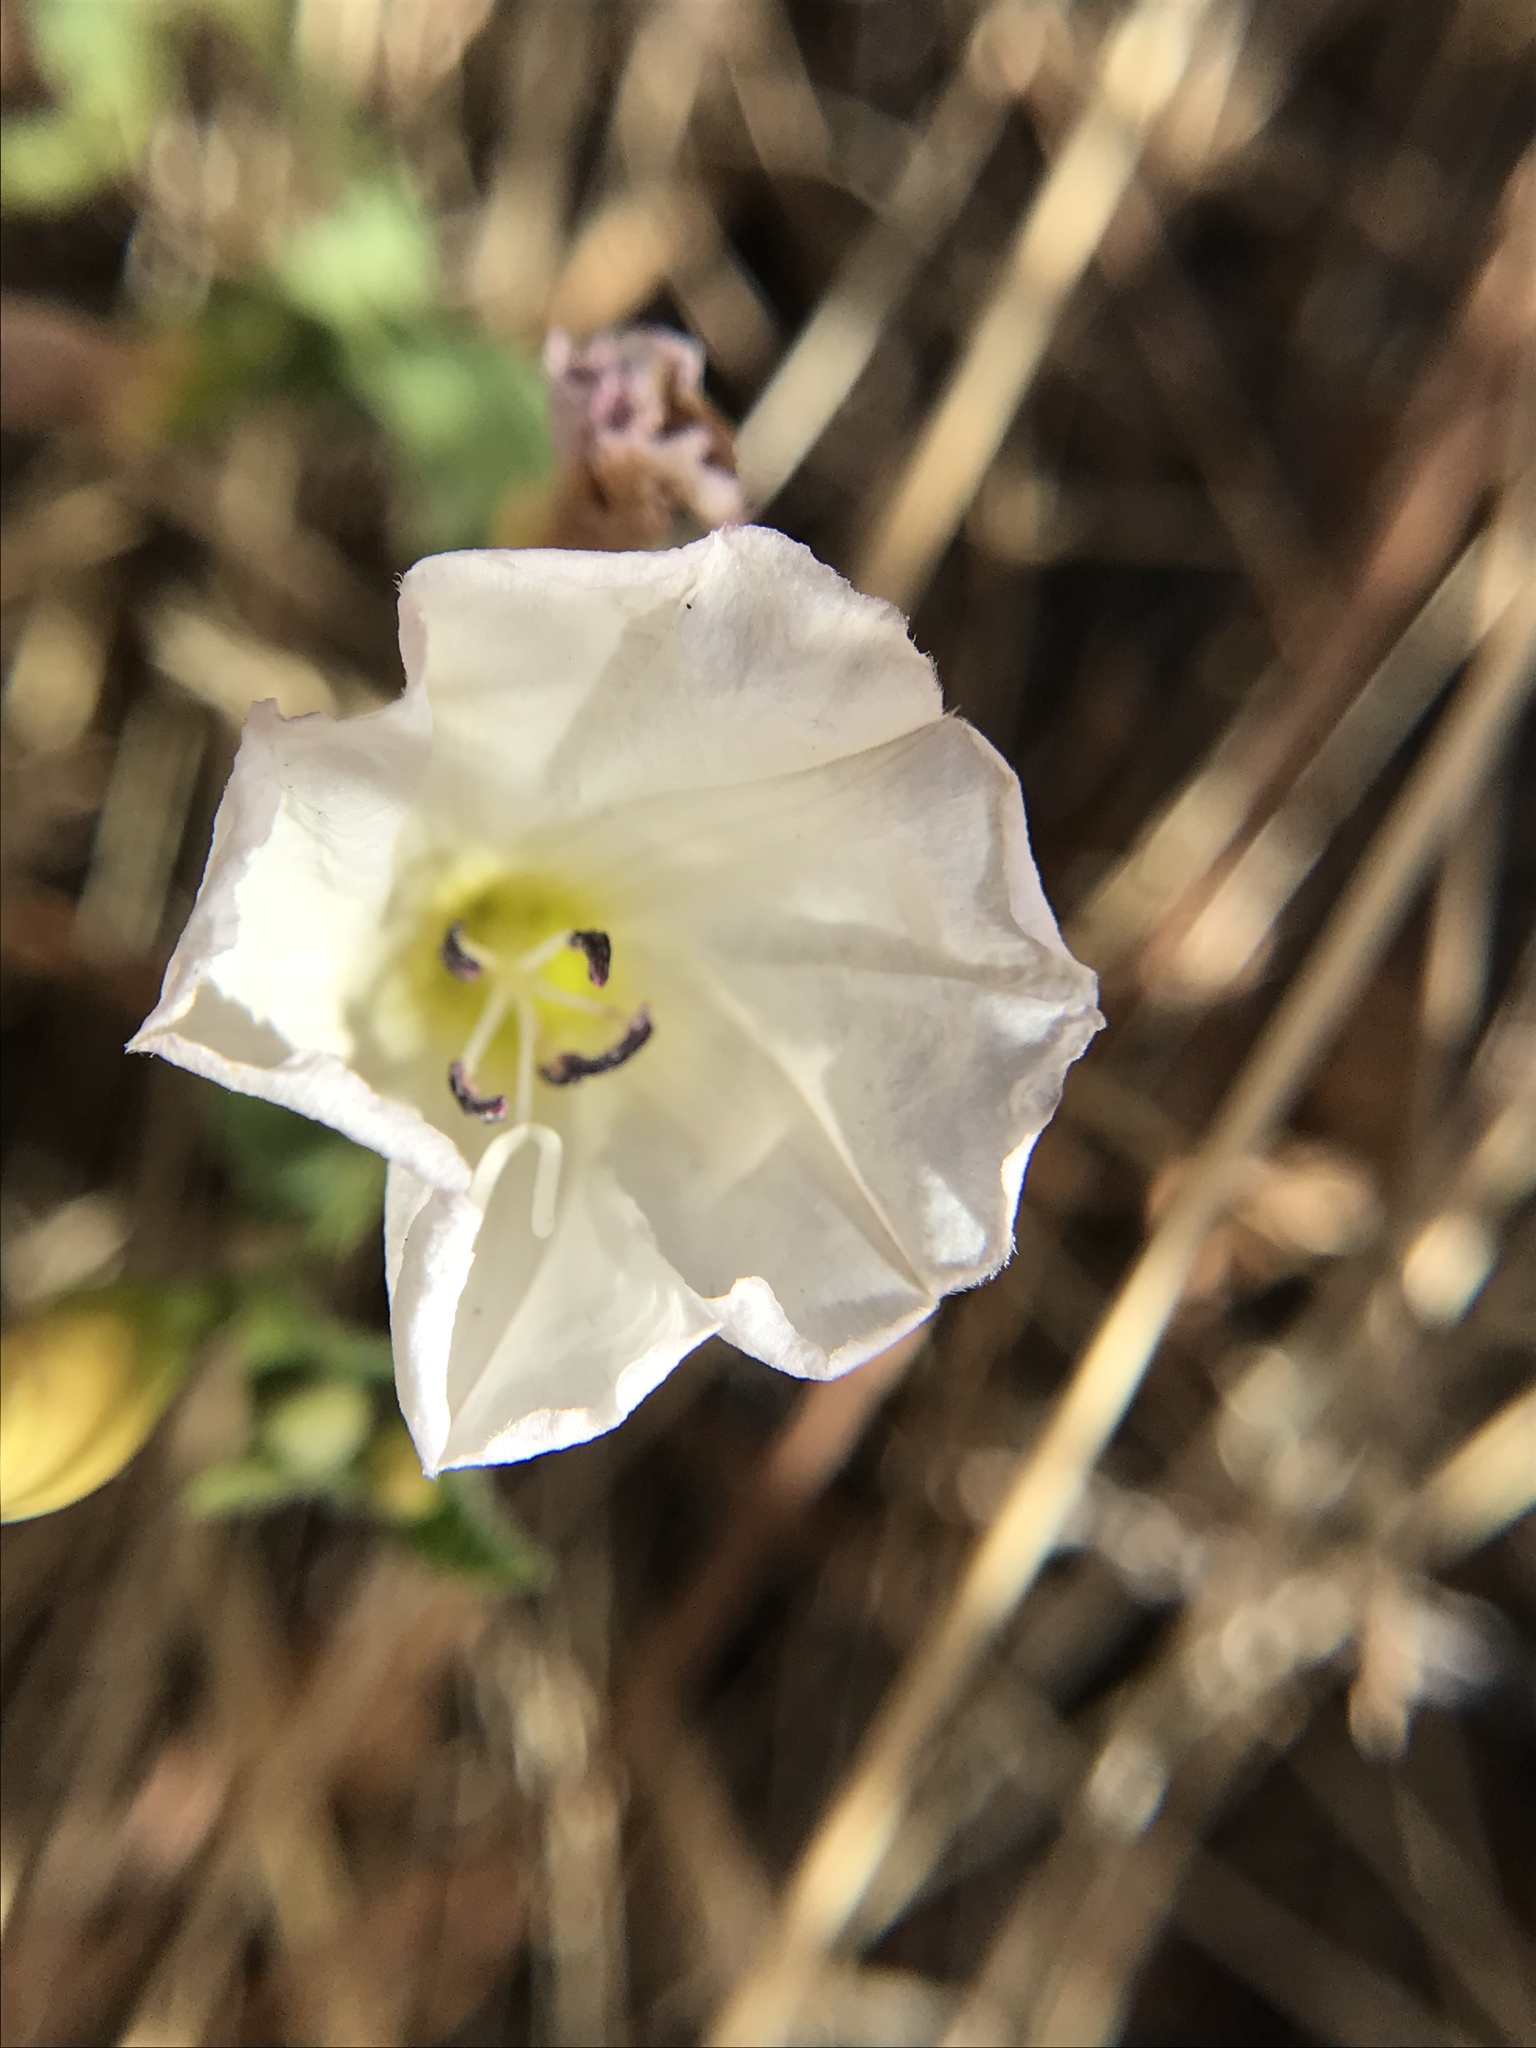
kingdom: Plantae
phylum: Tracheophyta
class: Magnoliopsida
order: Solanales
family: Convolvulaceae
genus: Convolvulus
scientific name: Convolvulus arvensis
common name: Field bindweed
